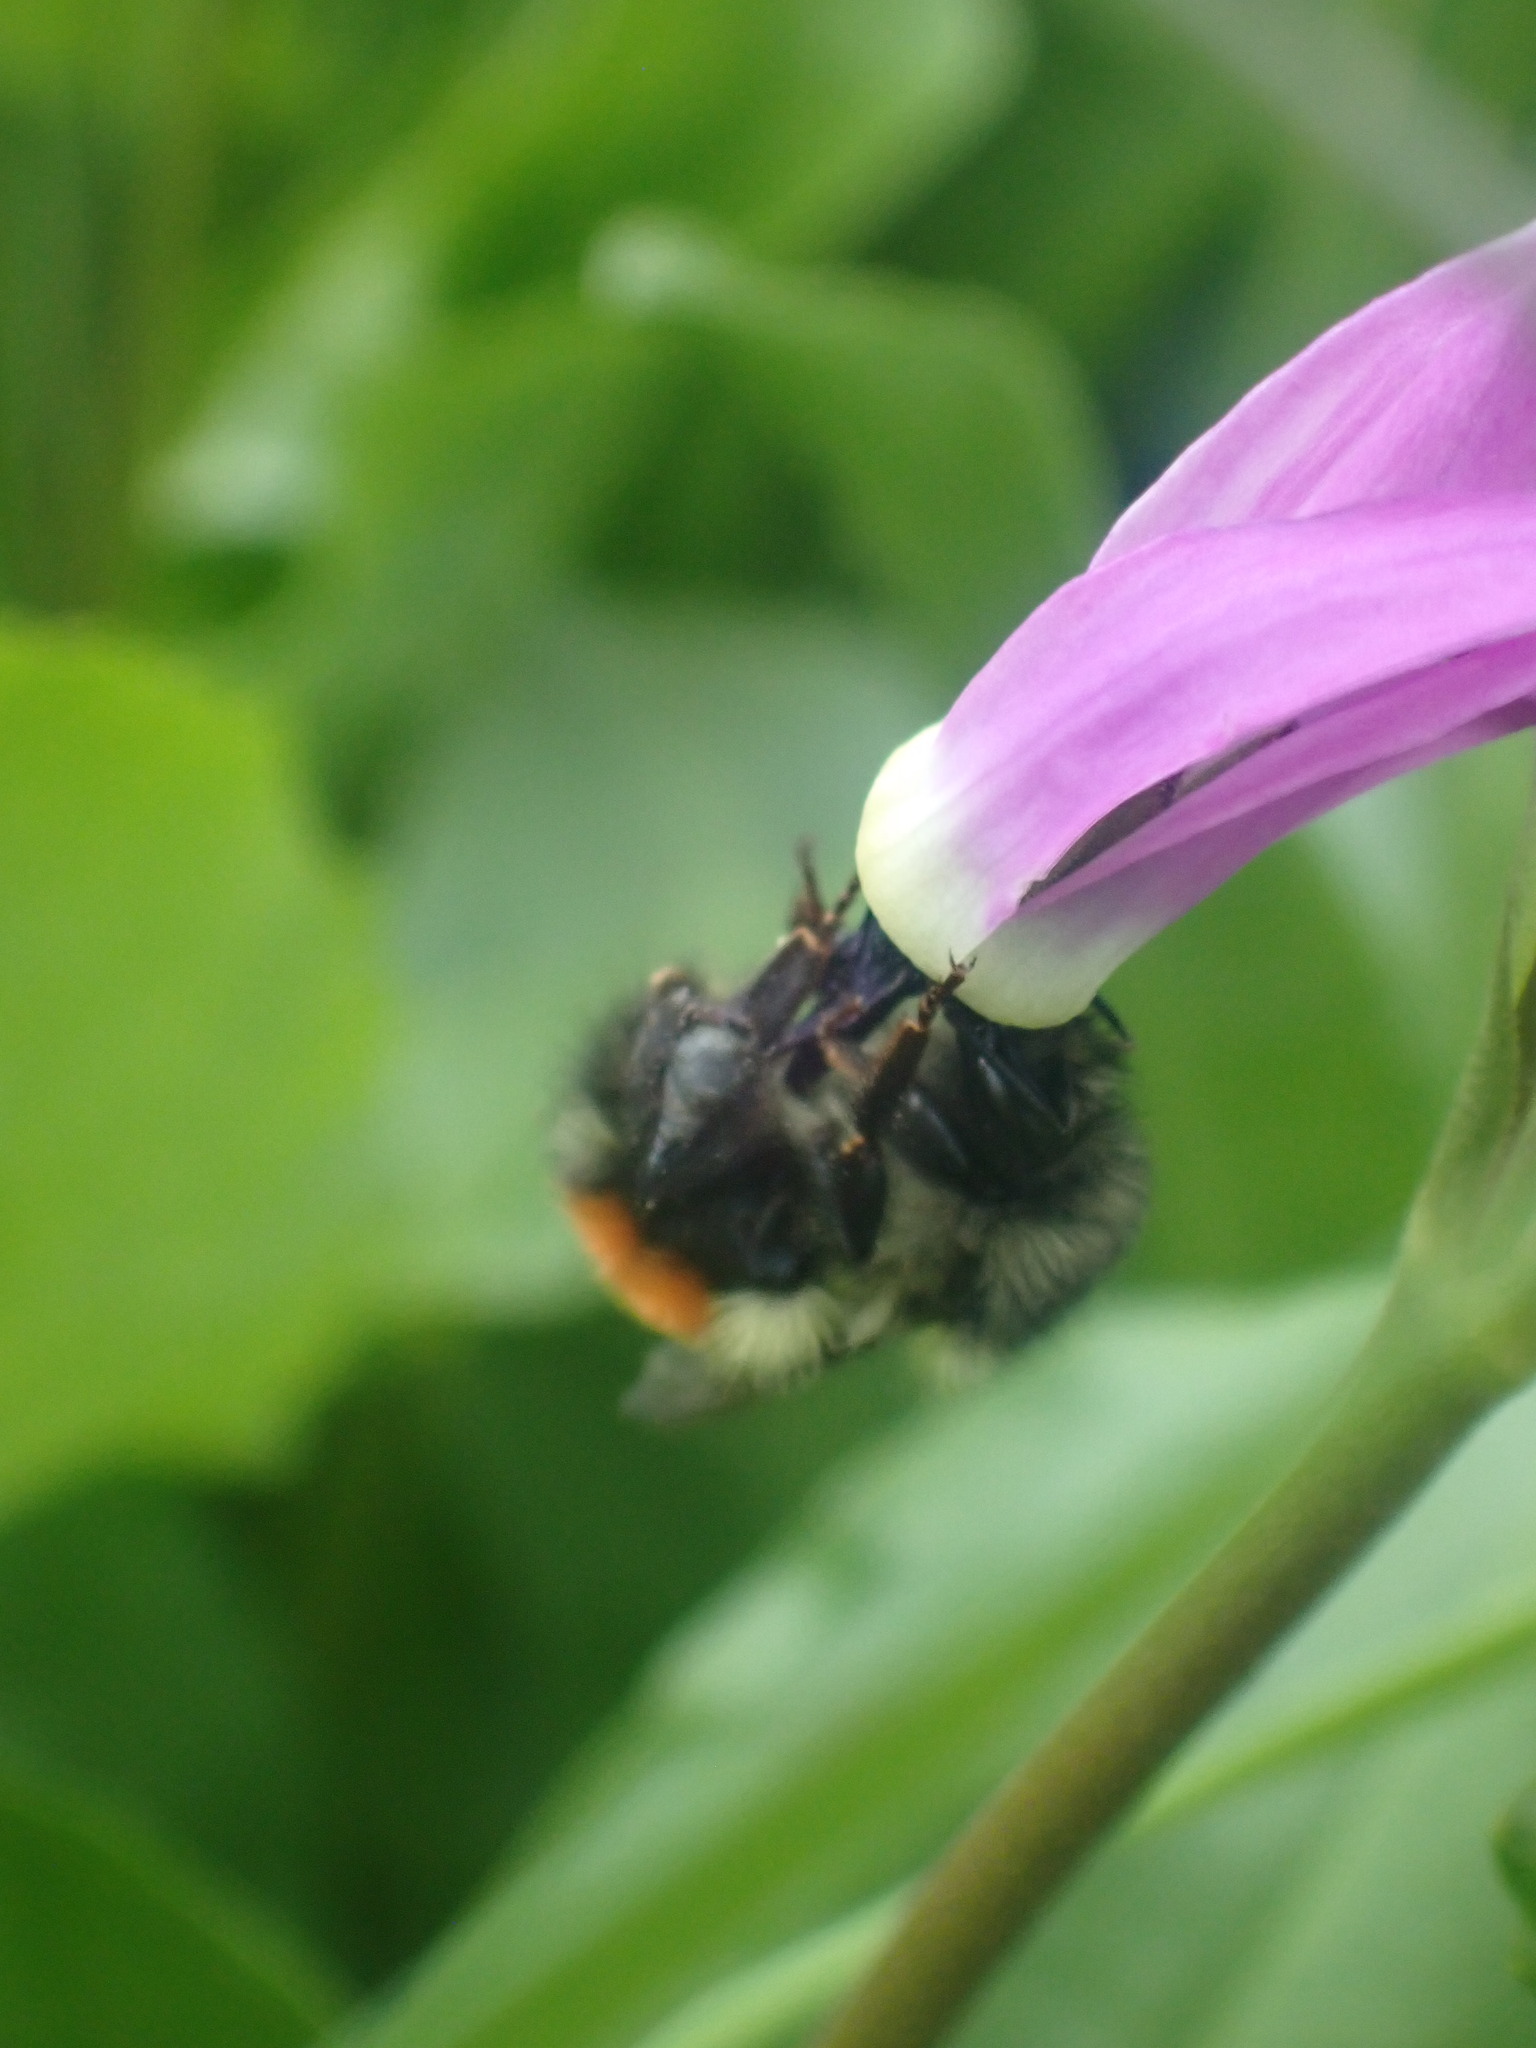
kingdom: Animalia
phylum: Arthropoda
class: Insecta
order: Hymenoptera
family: Apidae
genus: Bombus
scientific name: Bombus melanopygus
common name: Black tail bumble bee
